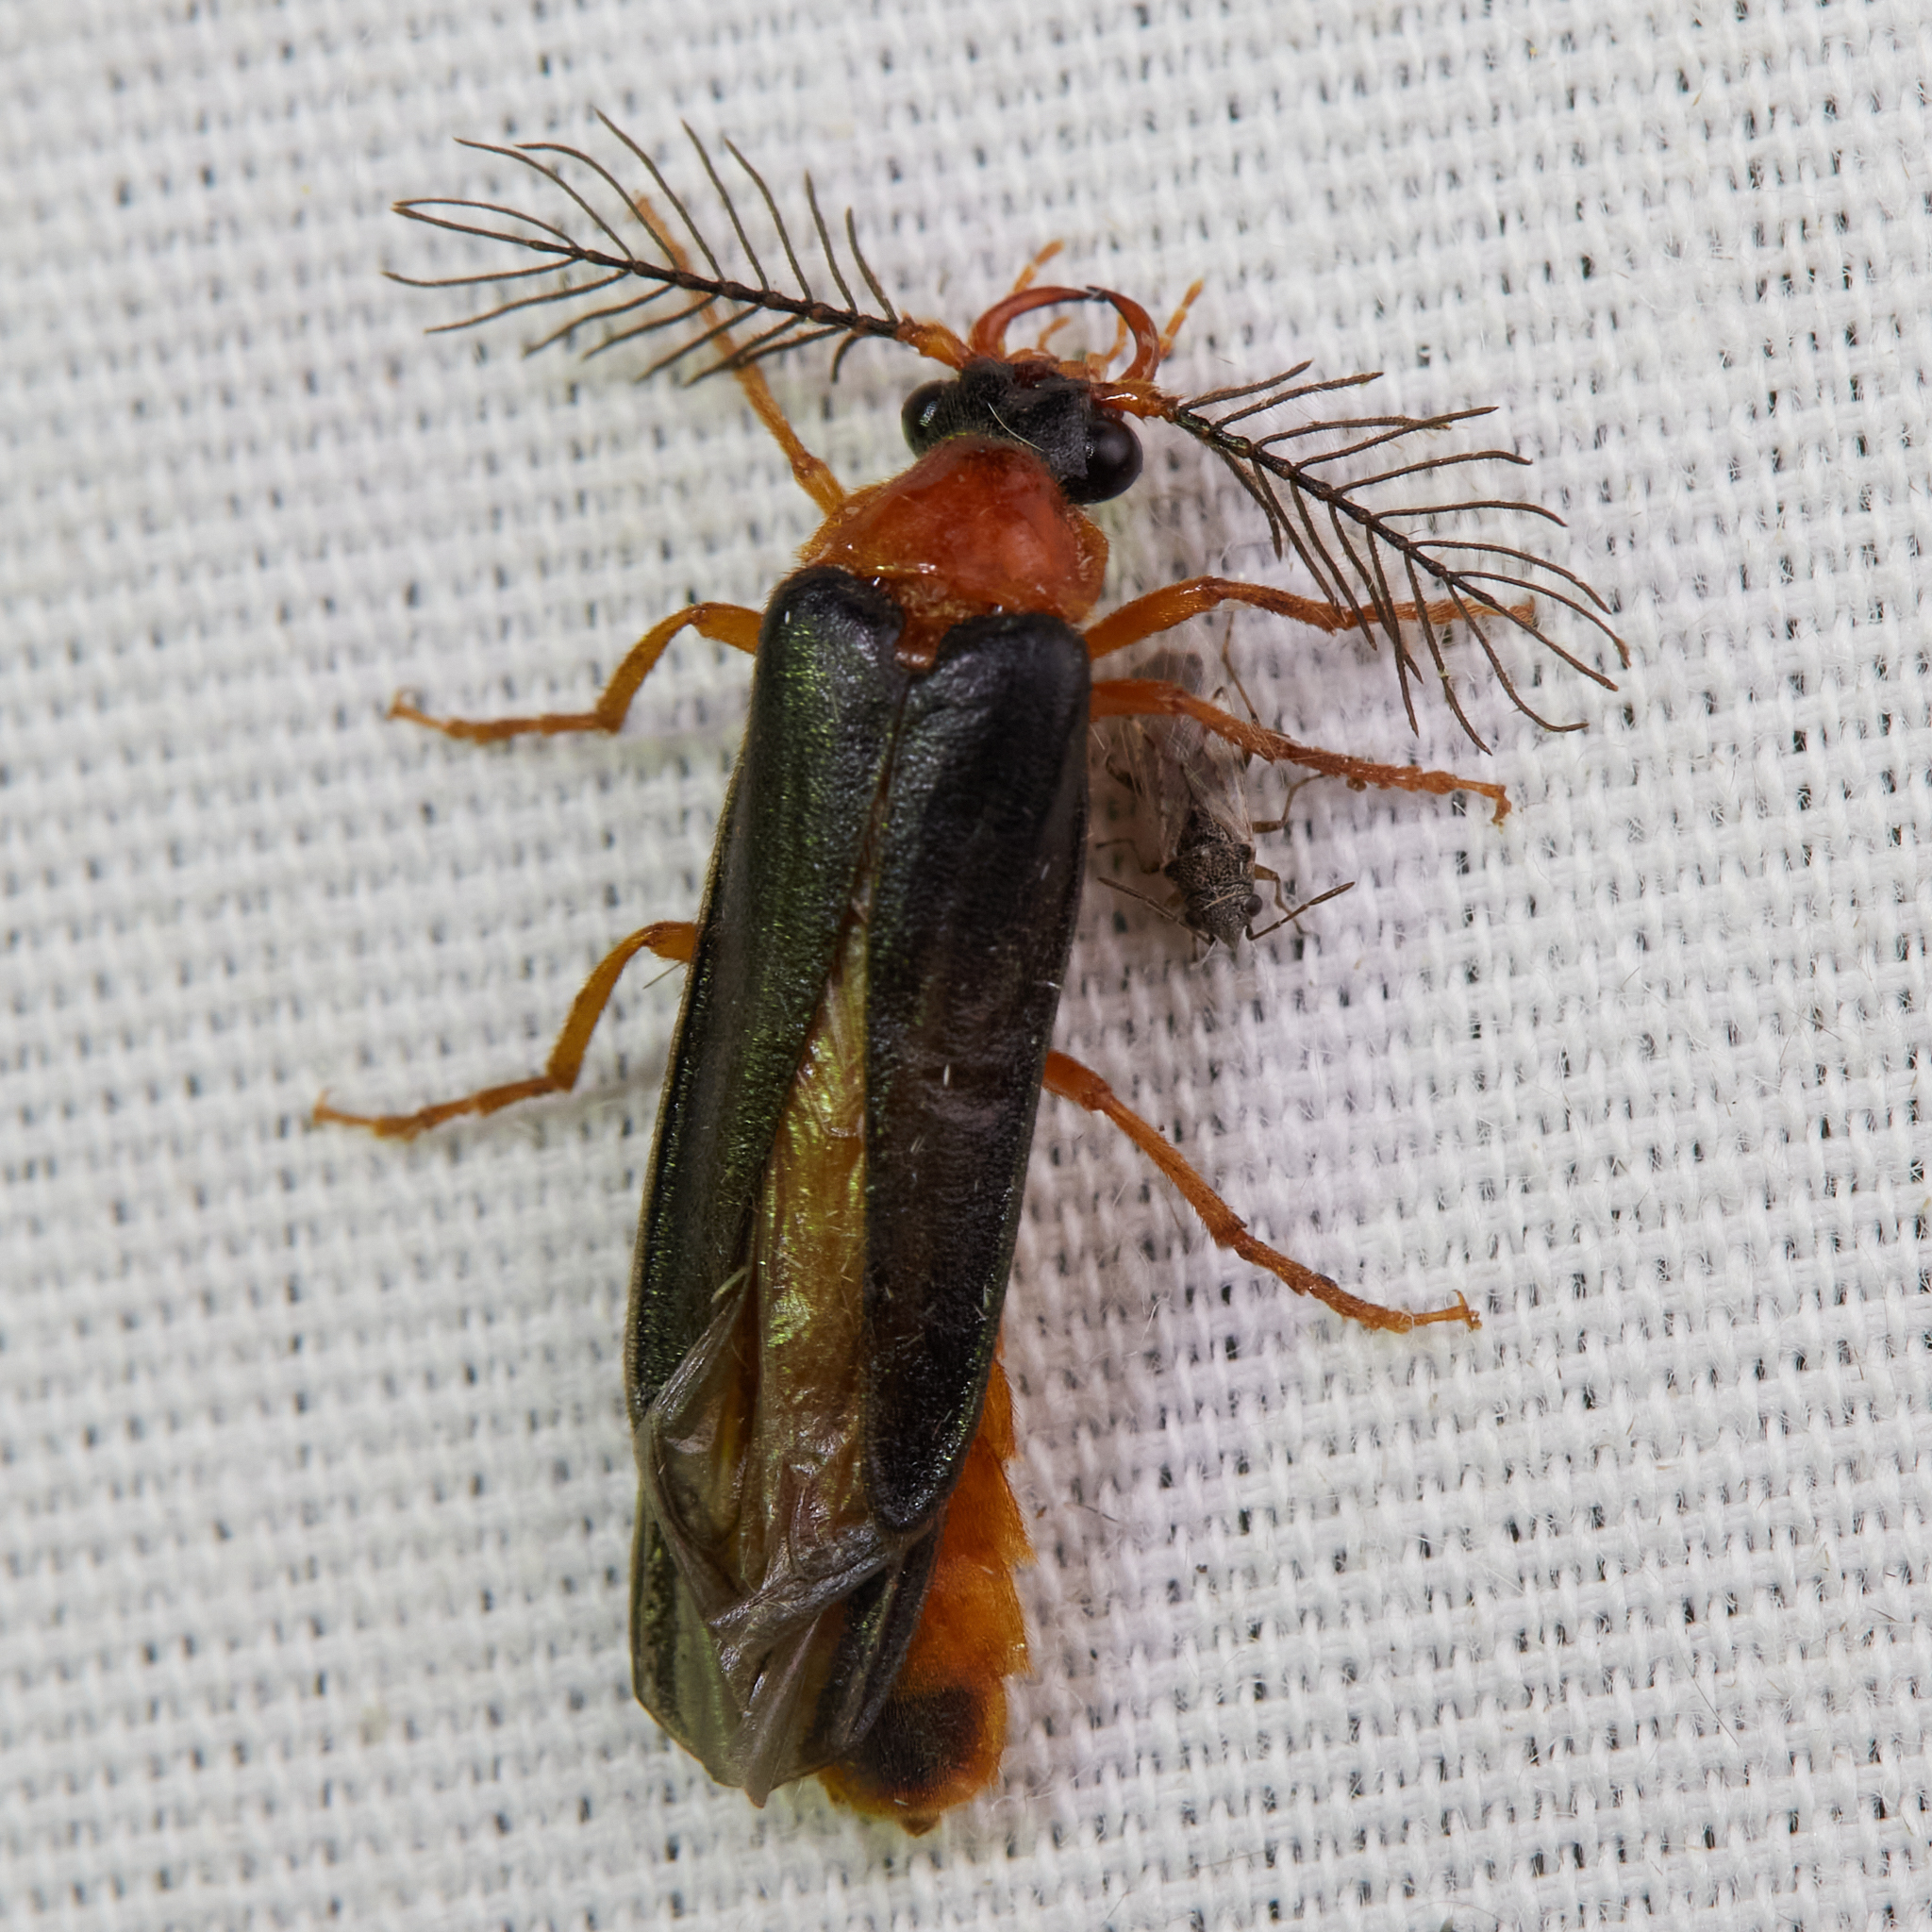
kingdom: Animalia
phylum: Arthropoda
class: Insecta
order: Coleoptera
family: Phengodidae
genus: Zarhipis
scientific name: Zarhipis truncaticeps
